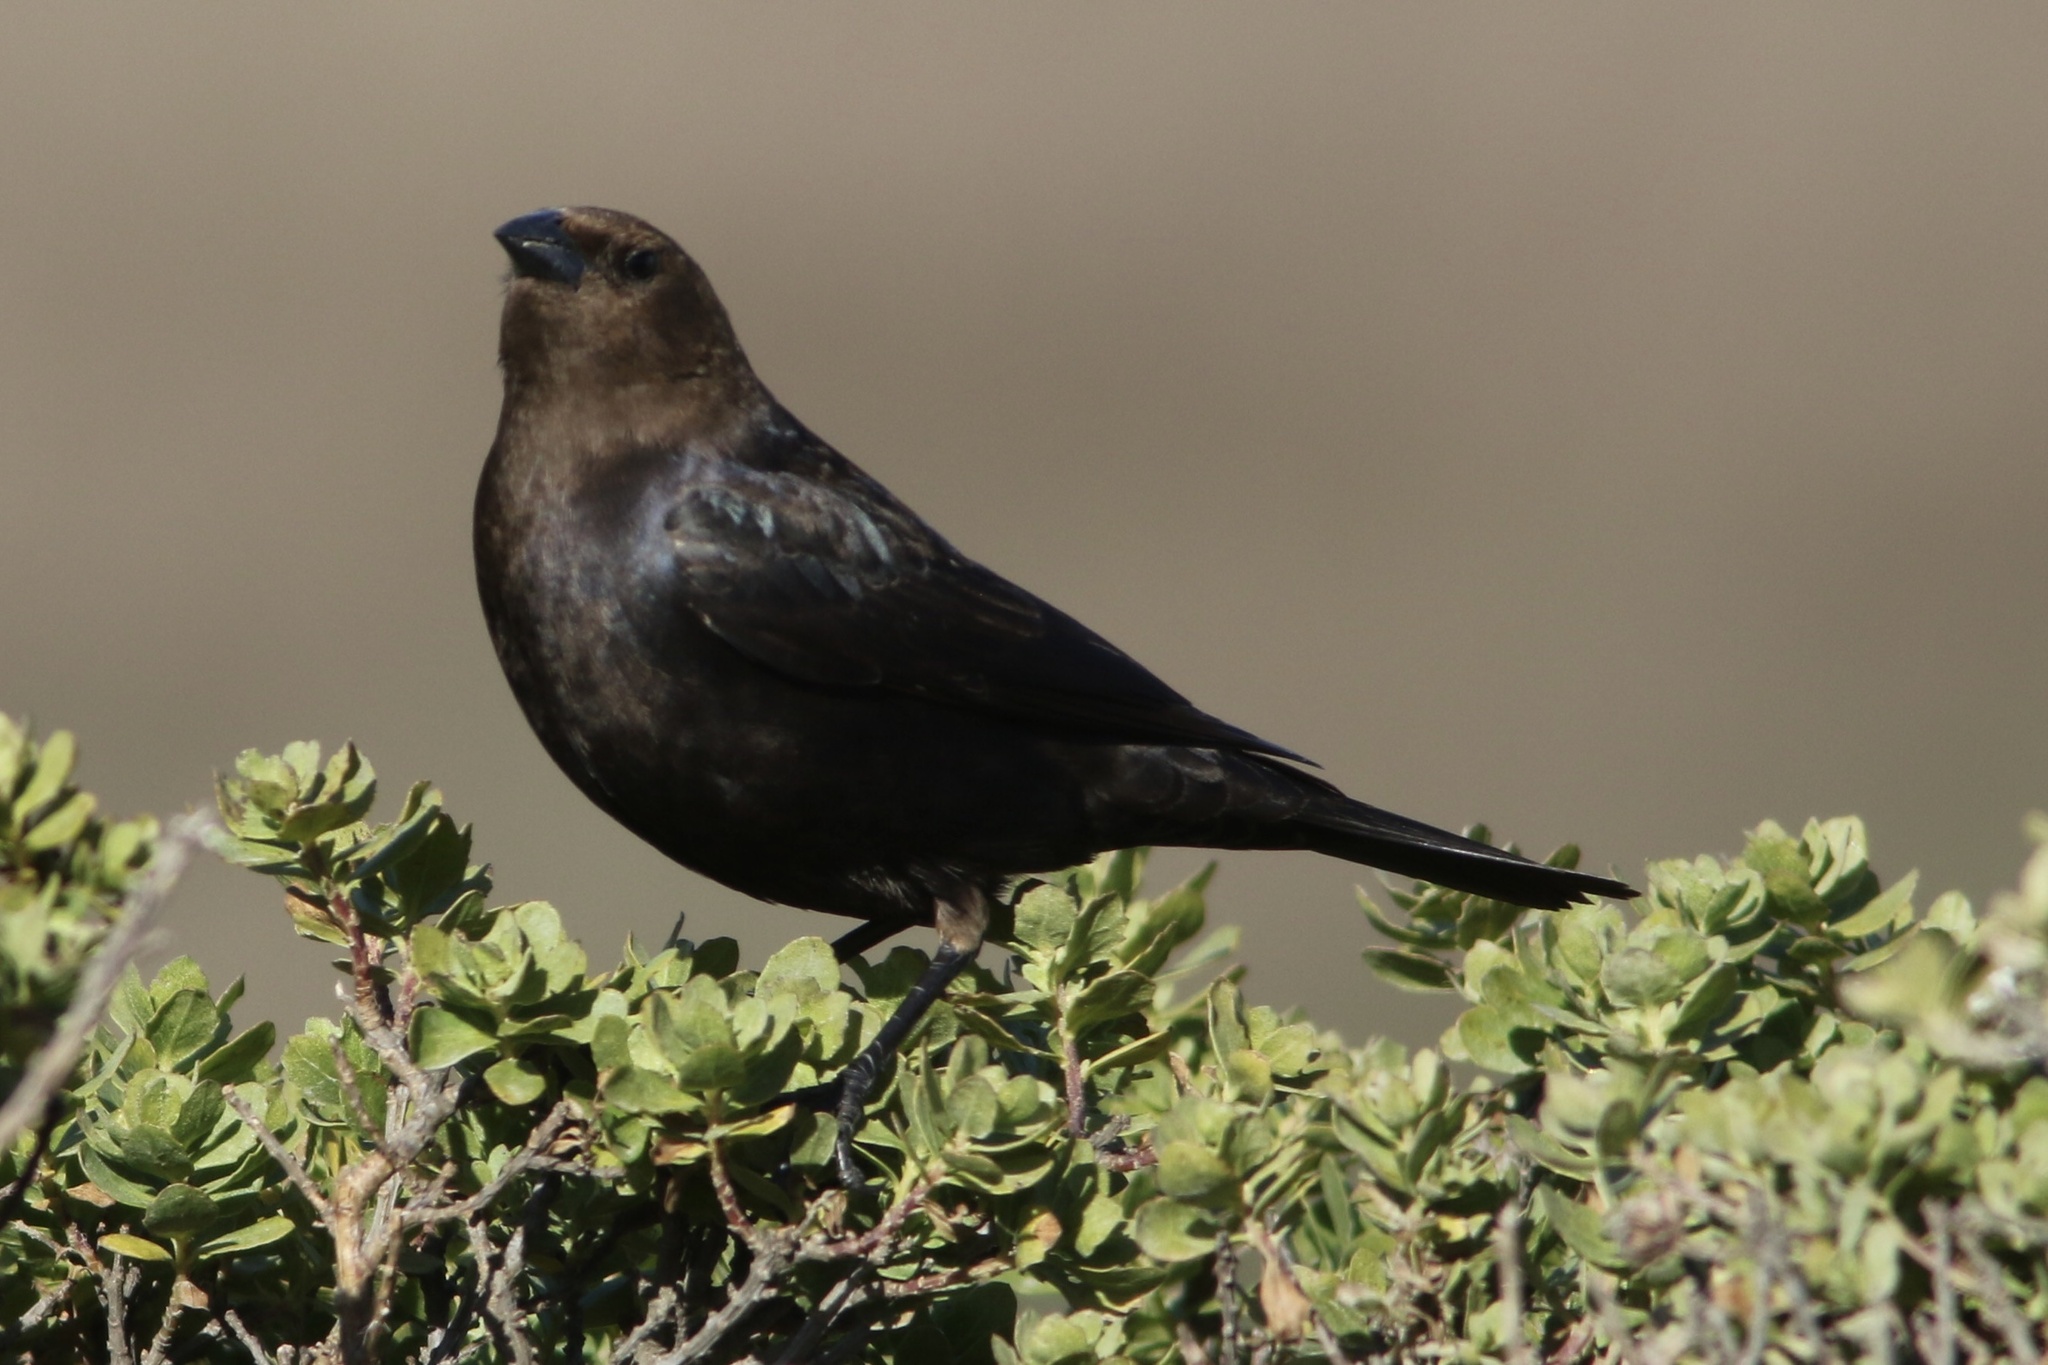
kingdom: Animalia
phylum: Chordata
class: Aves
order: Passeriformes
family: Icteridae
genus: Molothrus
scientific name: Molothrus ater
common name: Brown-headed cowbird
